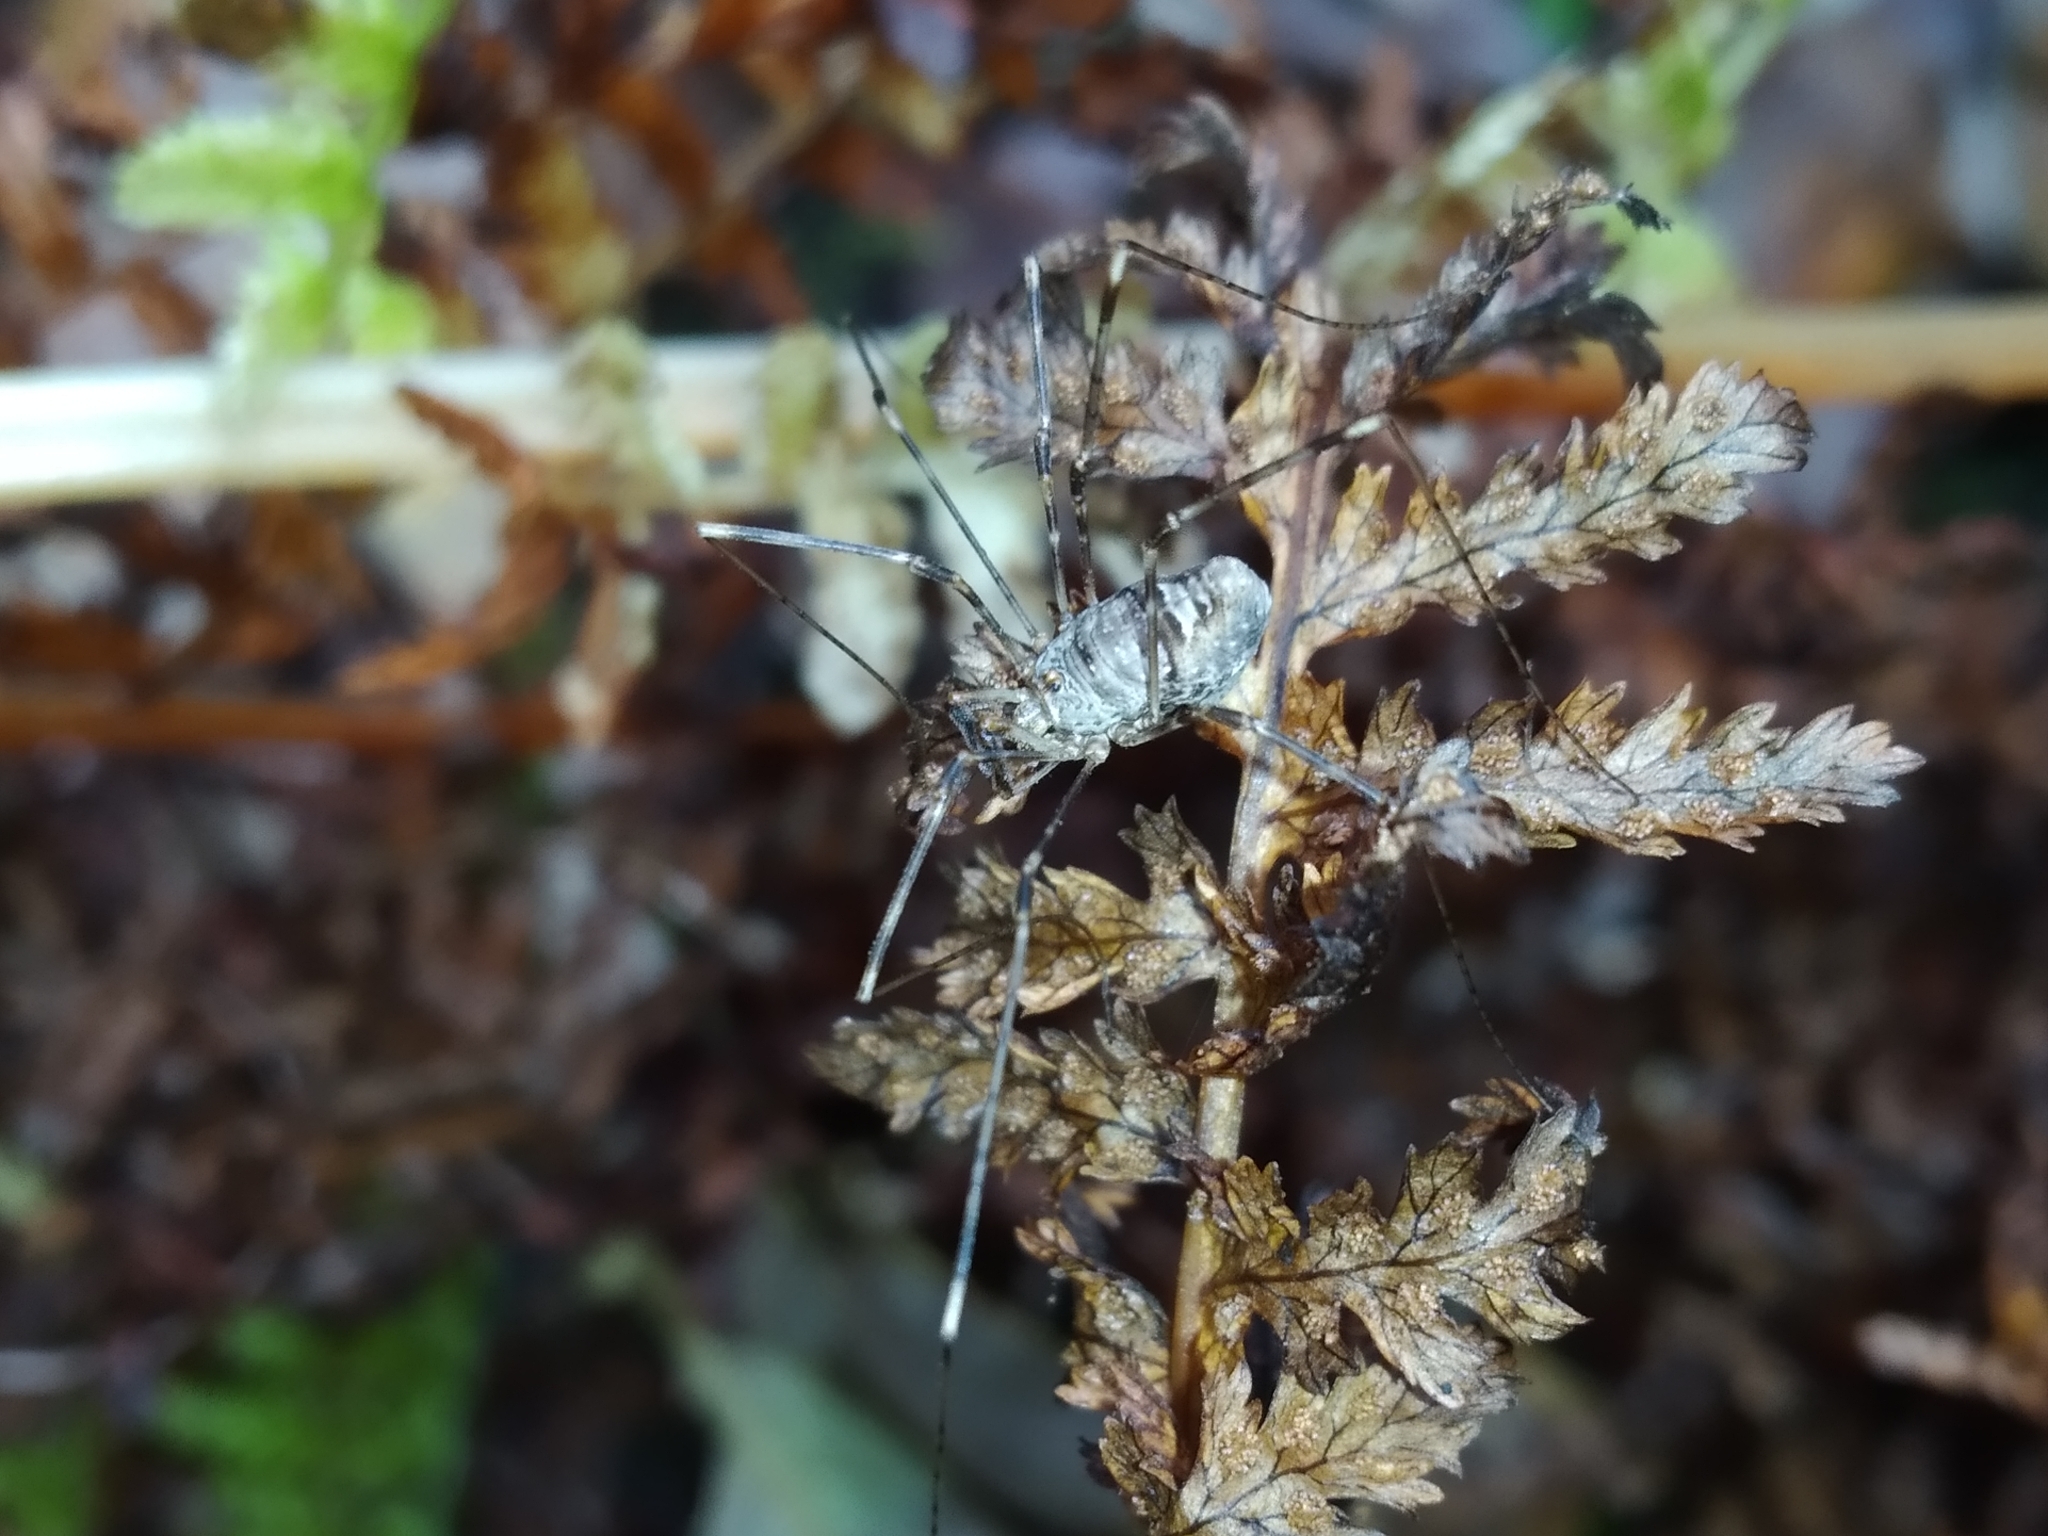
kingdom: Animalia
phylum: Arthropoda
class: Arachnida
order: Opiliones
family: Phalangiidae
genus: Dicranopalpus
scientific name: Dicranopalpus ramosus
